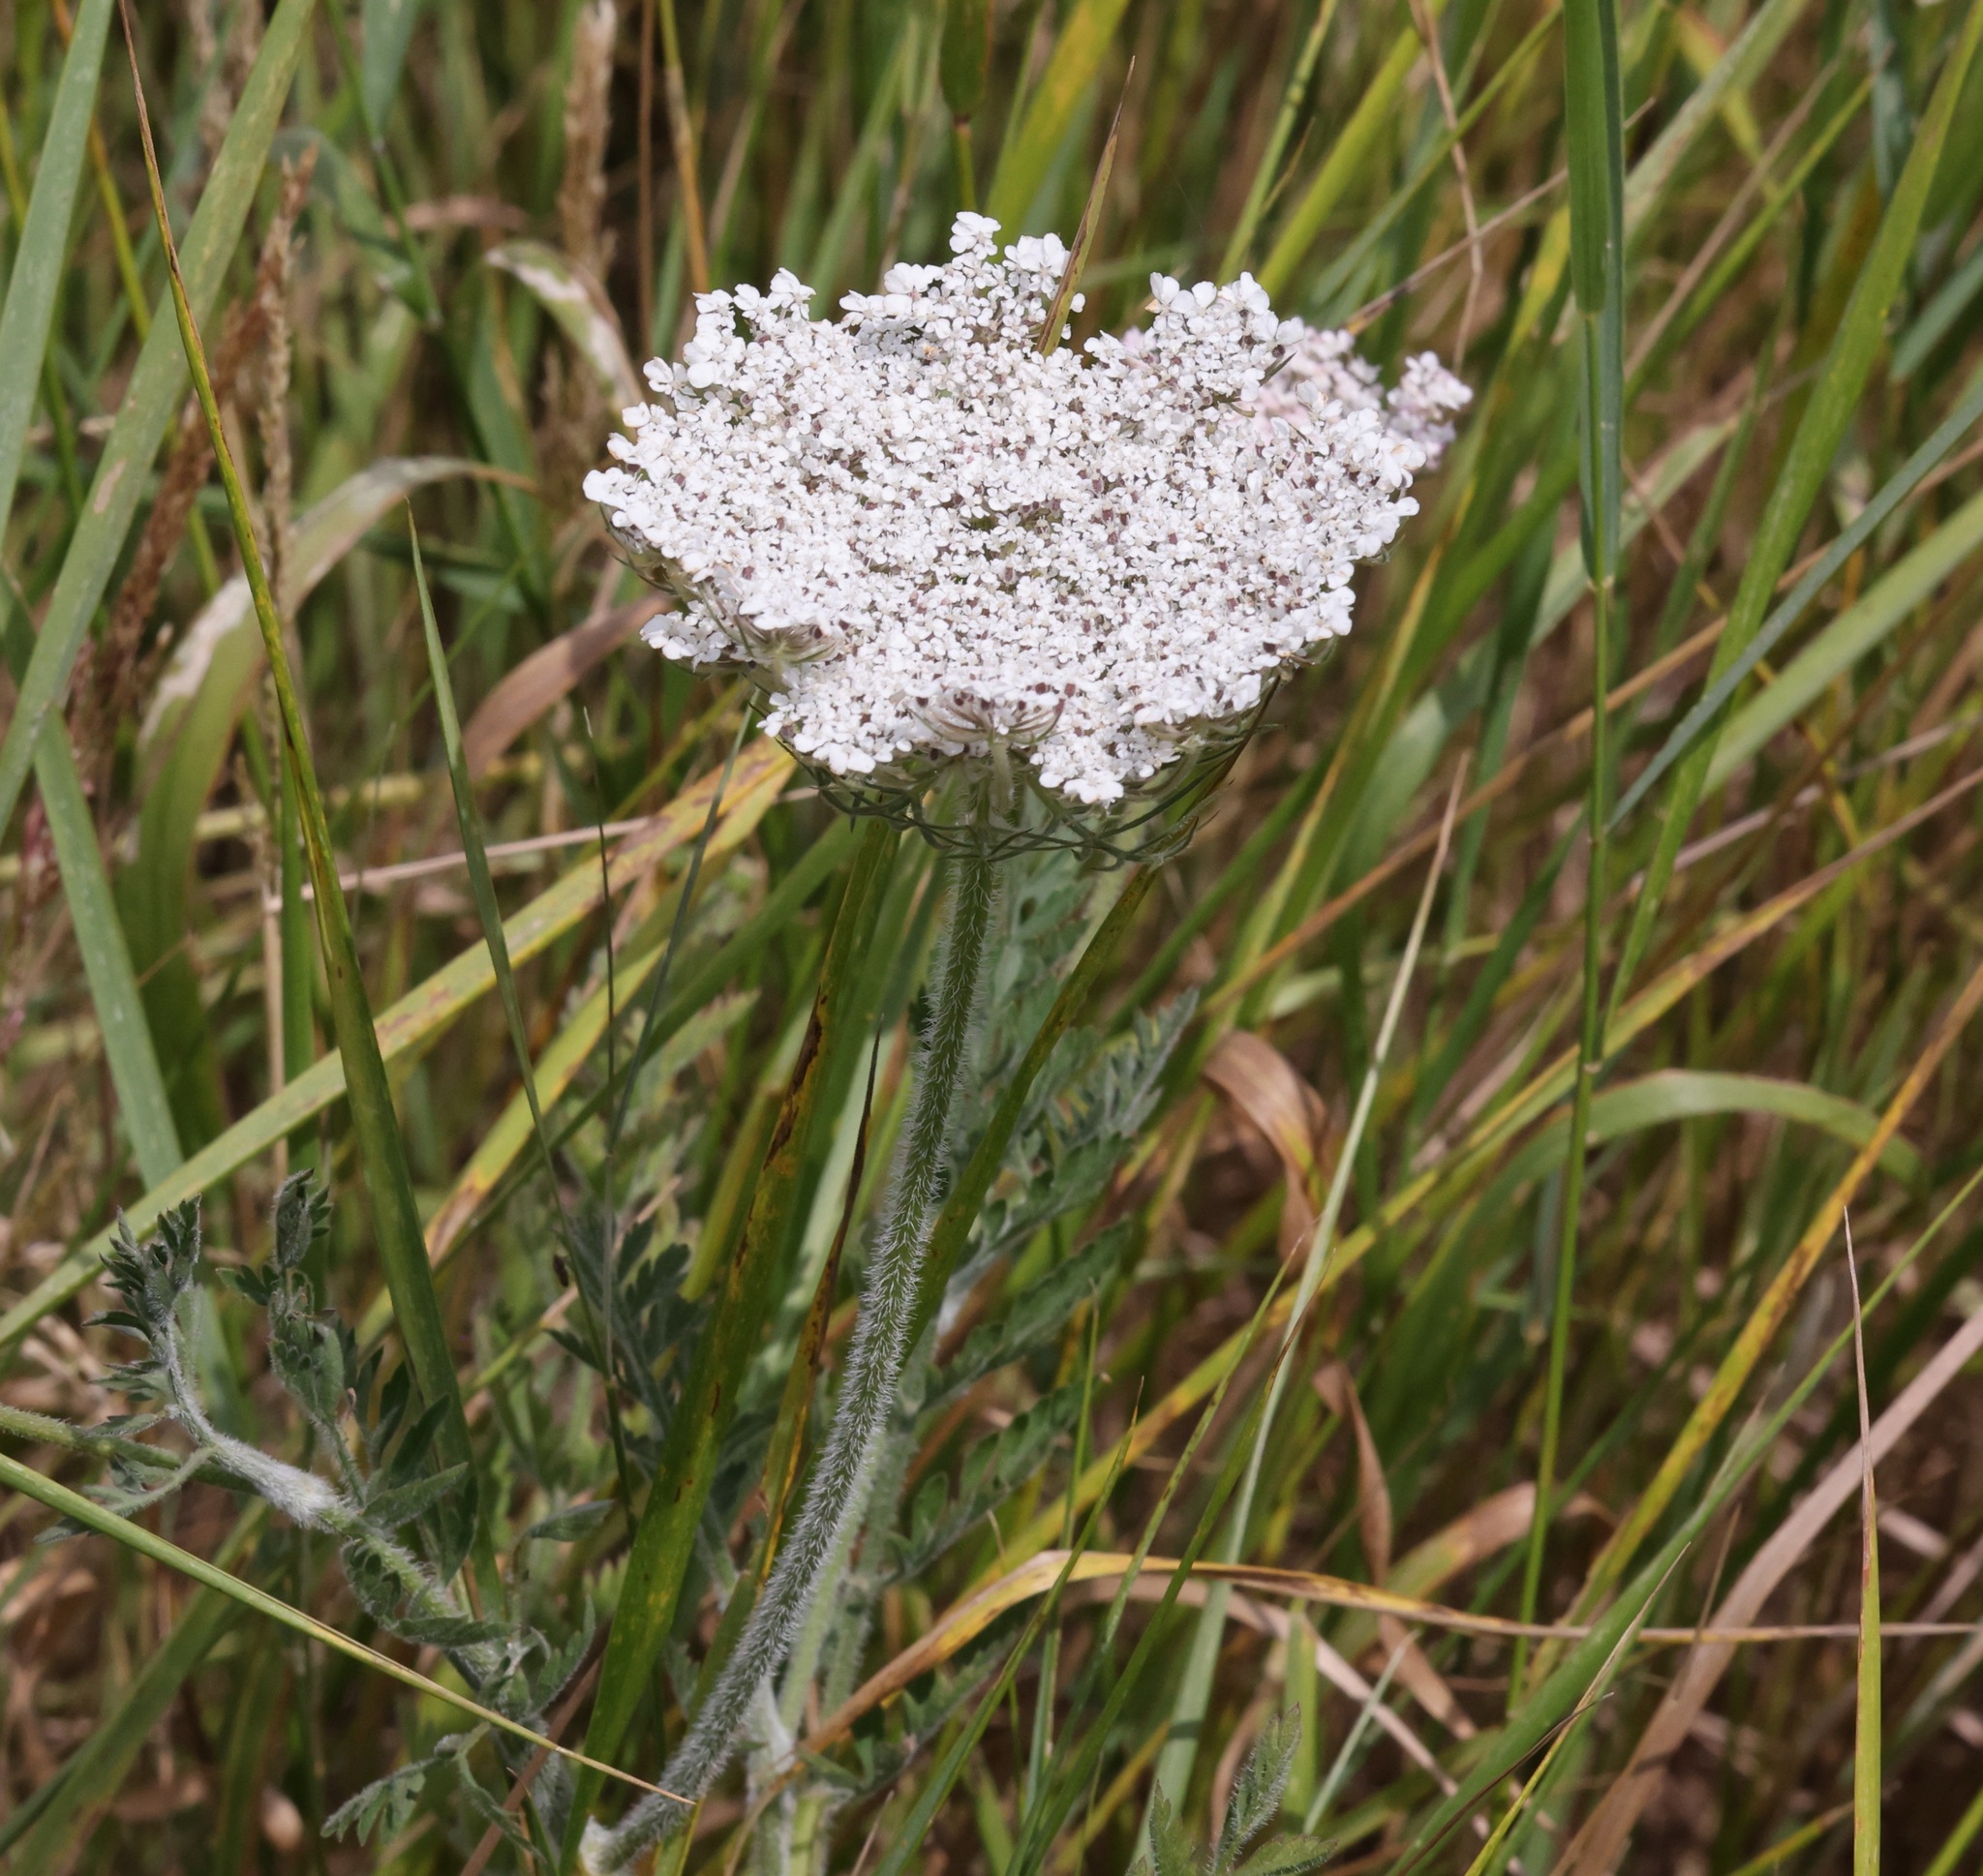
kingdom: Plantae
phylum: Tracheophyta
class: Magnoliopsida
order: Apiales
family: Apiaceae
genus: Daucus
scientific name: Daucus carota
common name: Wild carrot
